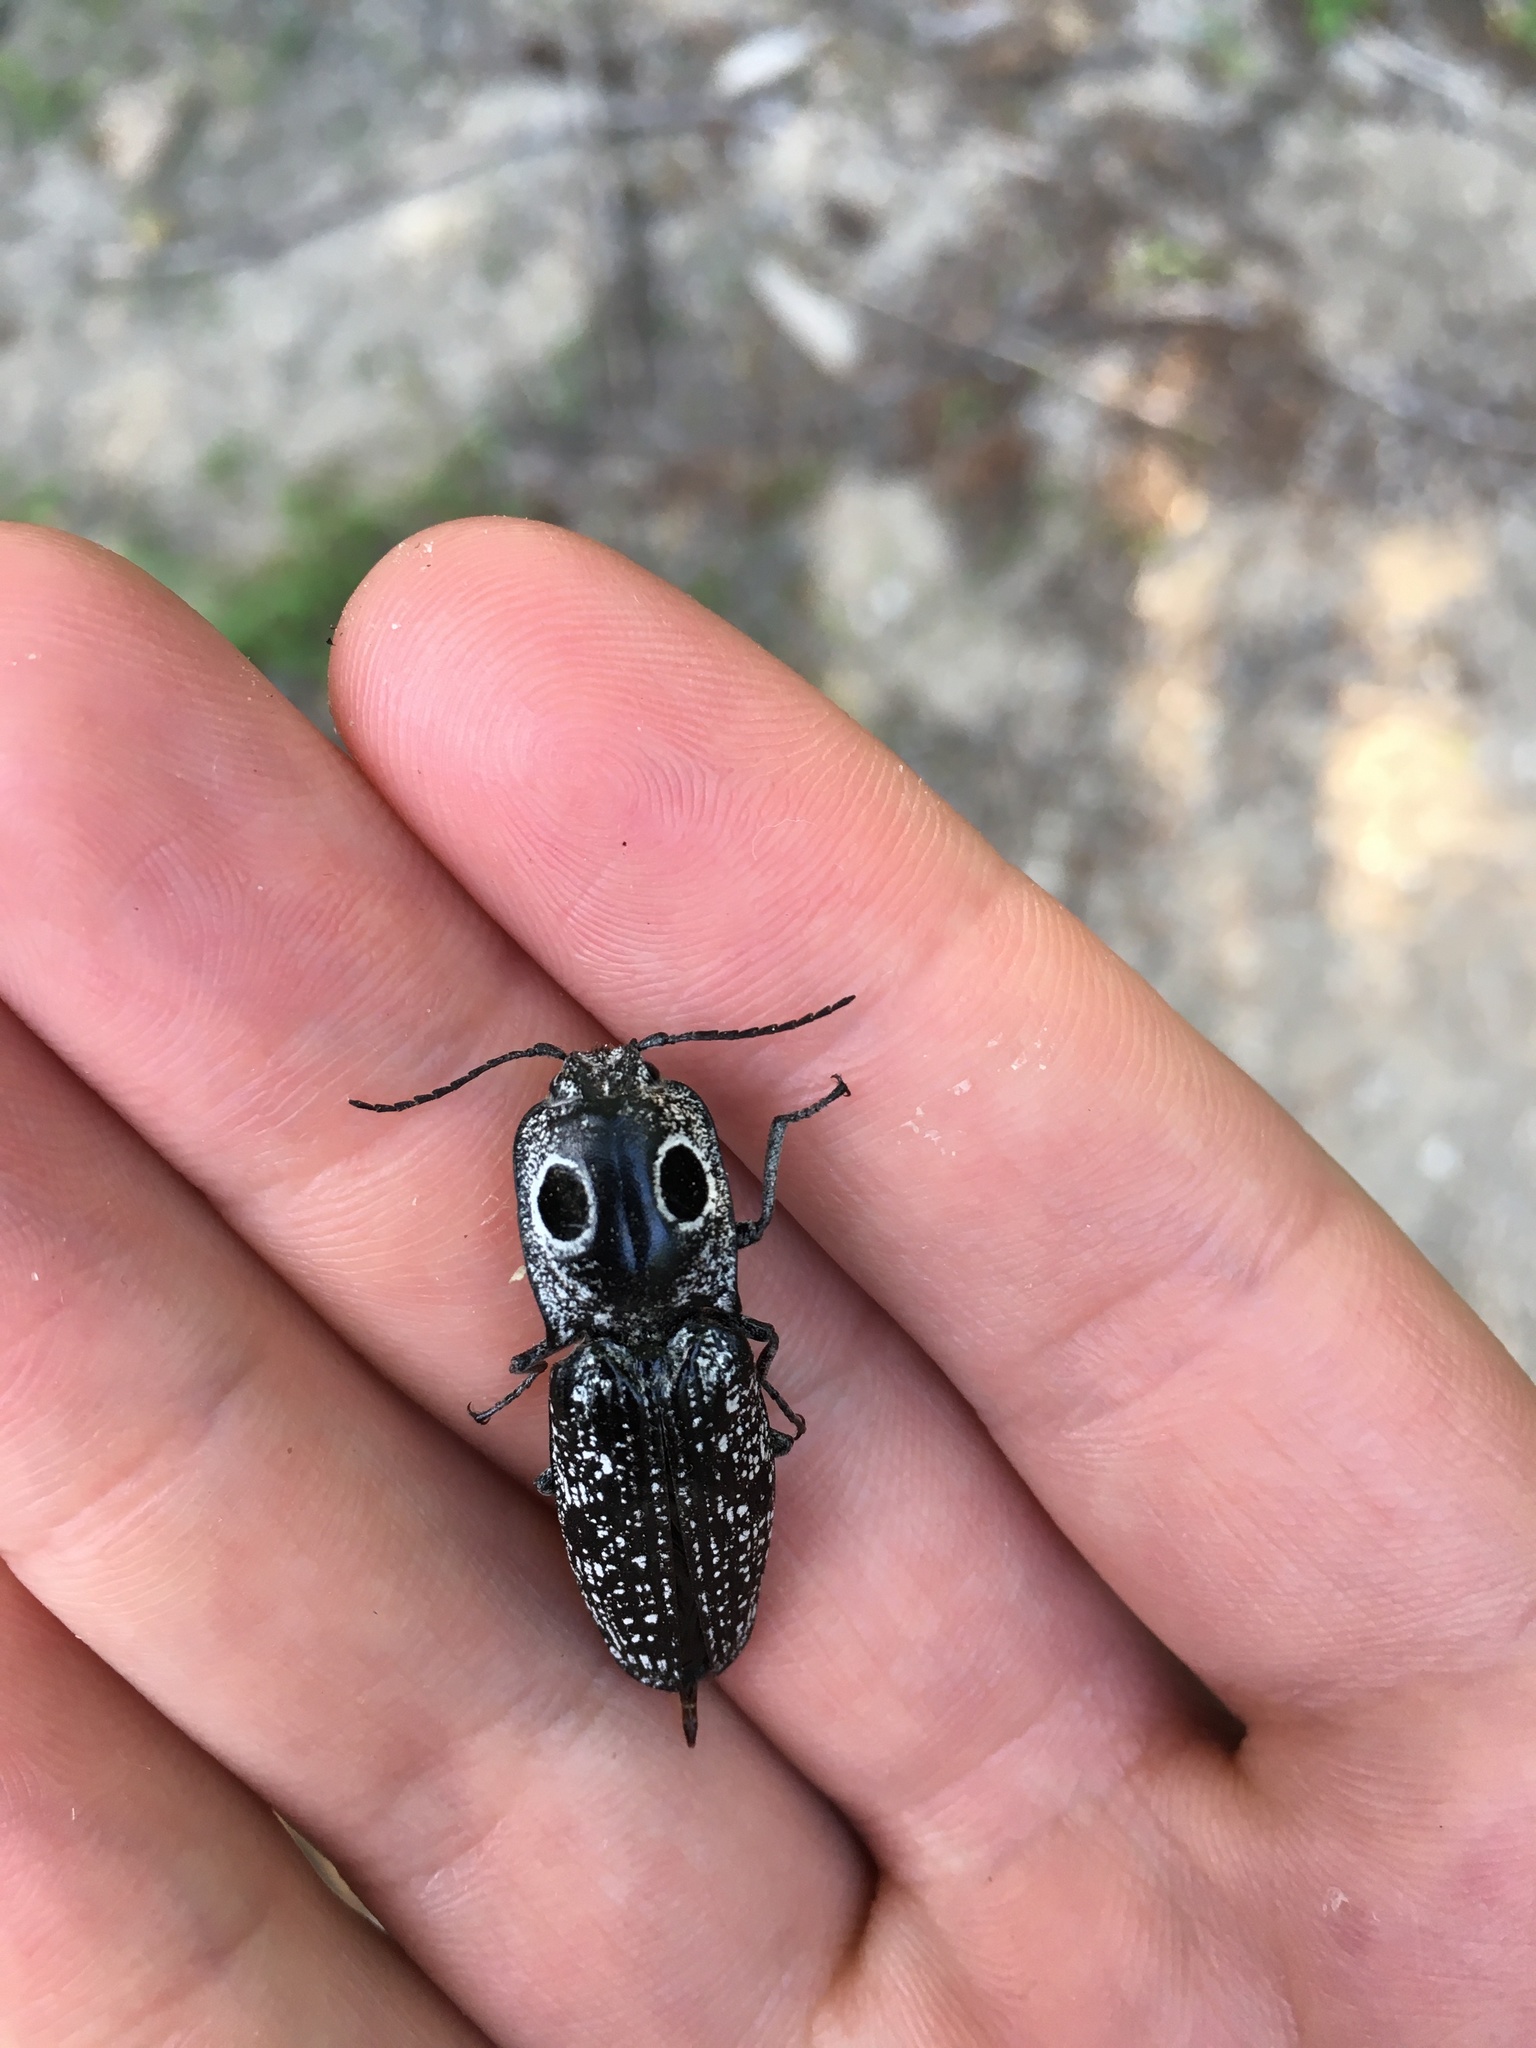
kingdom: Animalia
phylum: Arthropoda
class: Insecta
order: Coleoptera
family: Elateridae
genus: Alaus
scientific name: Alaus oculatus
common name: Eastern eyed click beetle
